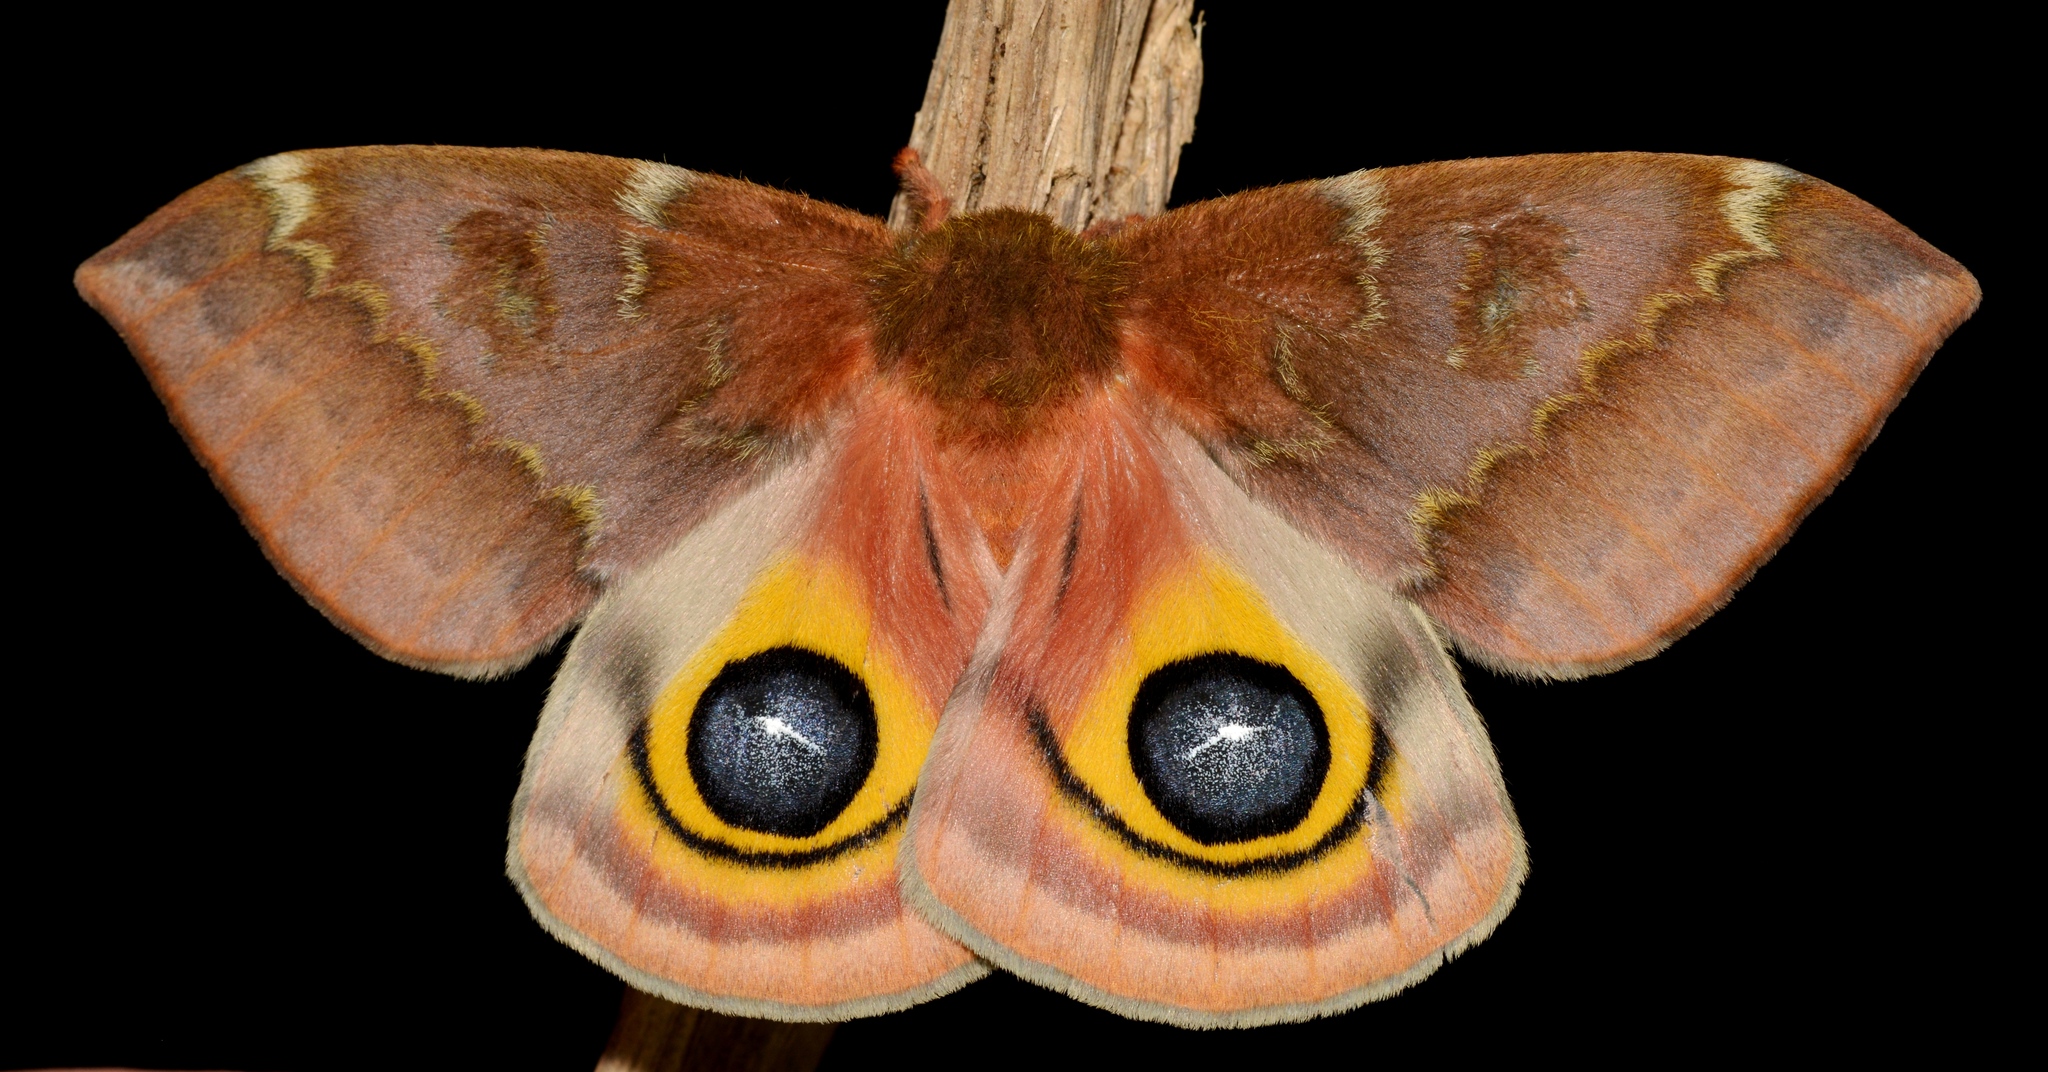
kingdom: Animalia
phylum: Arthropoda
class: Insecta
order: Lepidoptera
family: Saturniidae
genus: Automeris
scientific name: Automeris io
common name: Io moth
